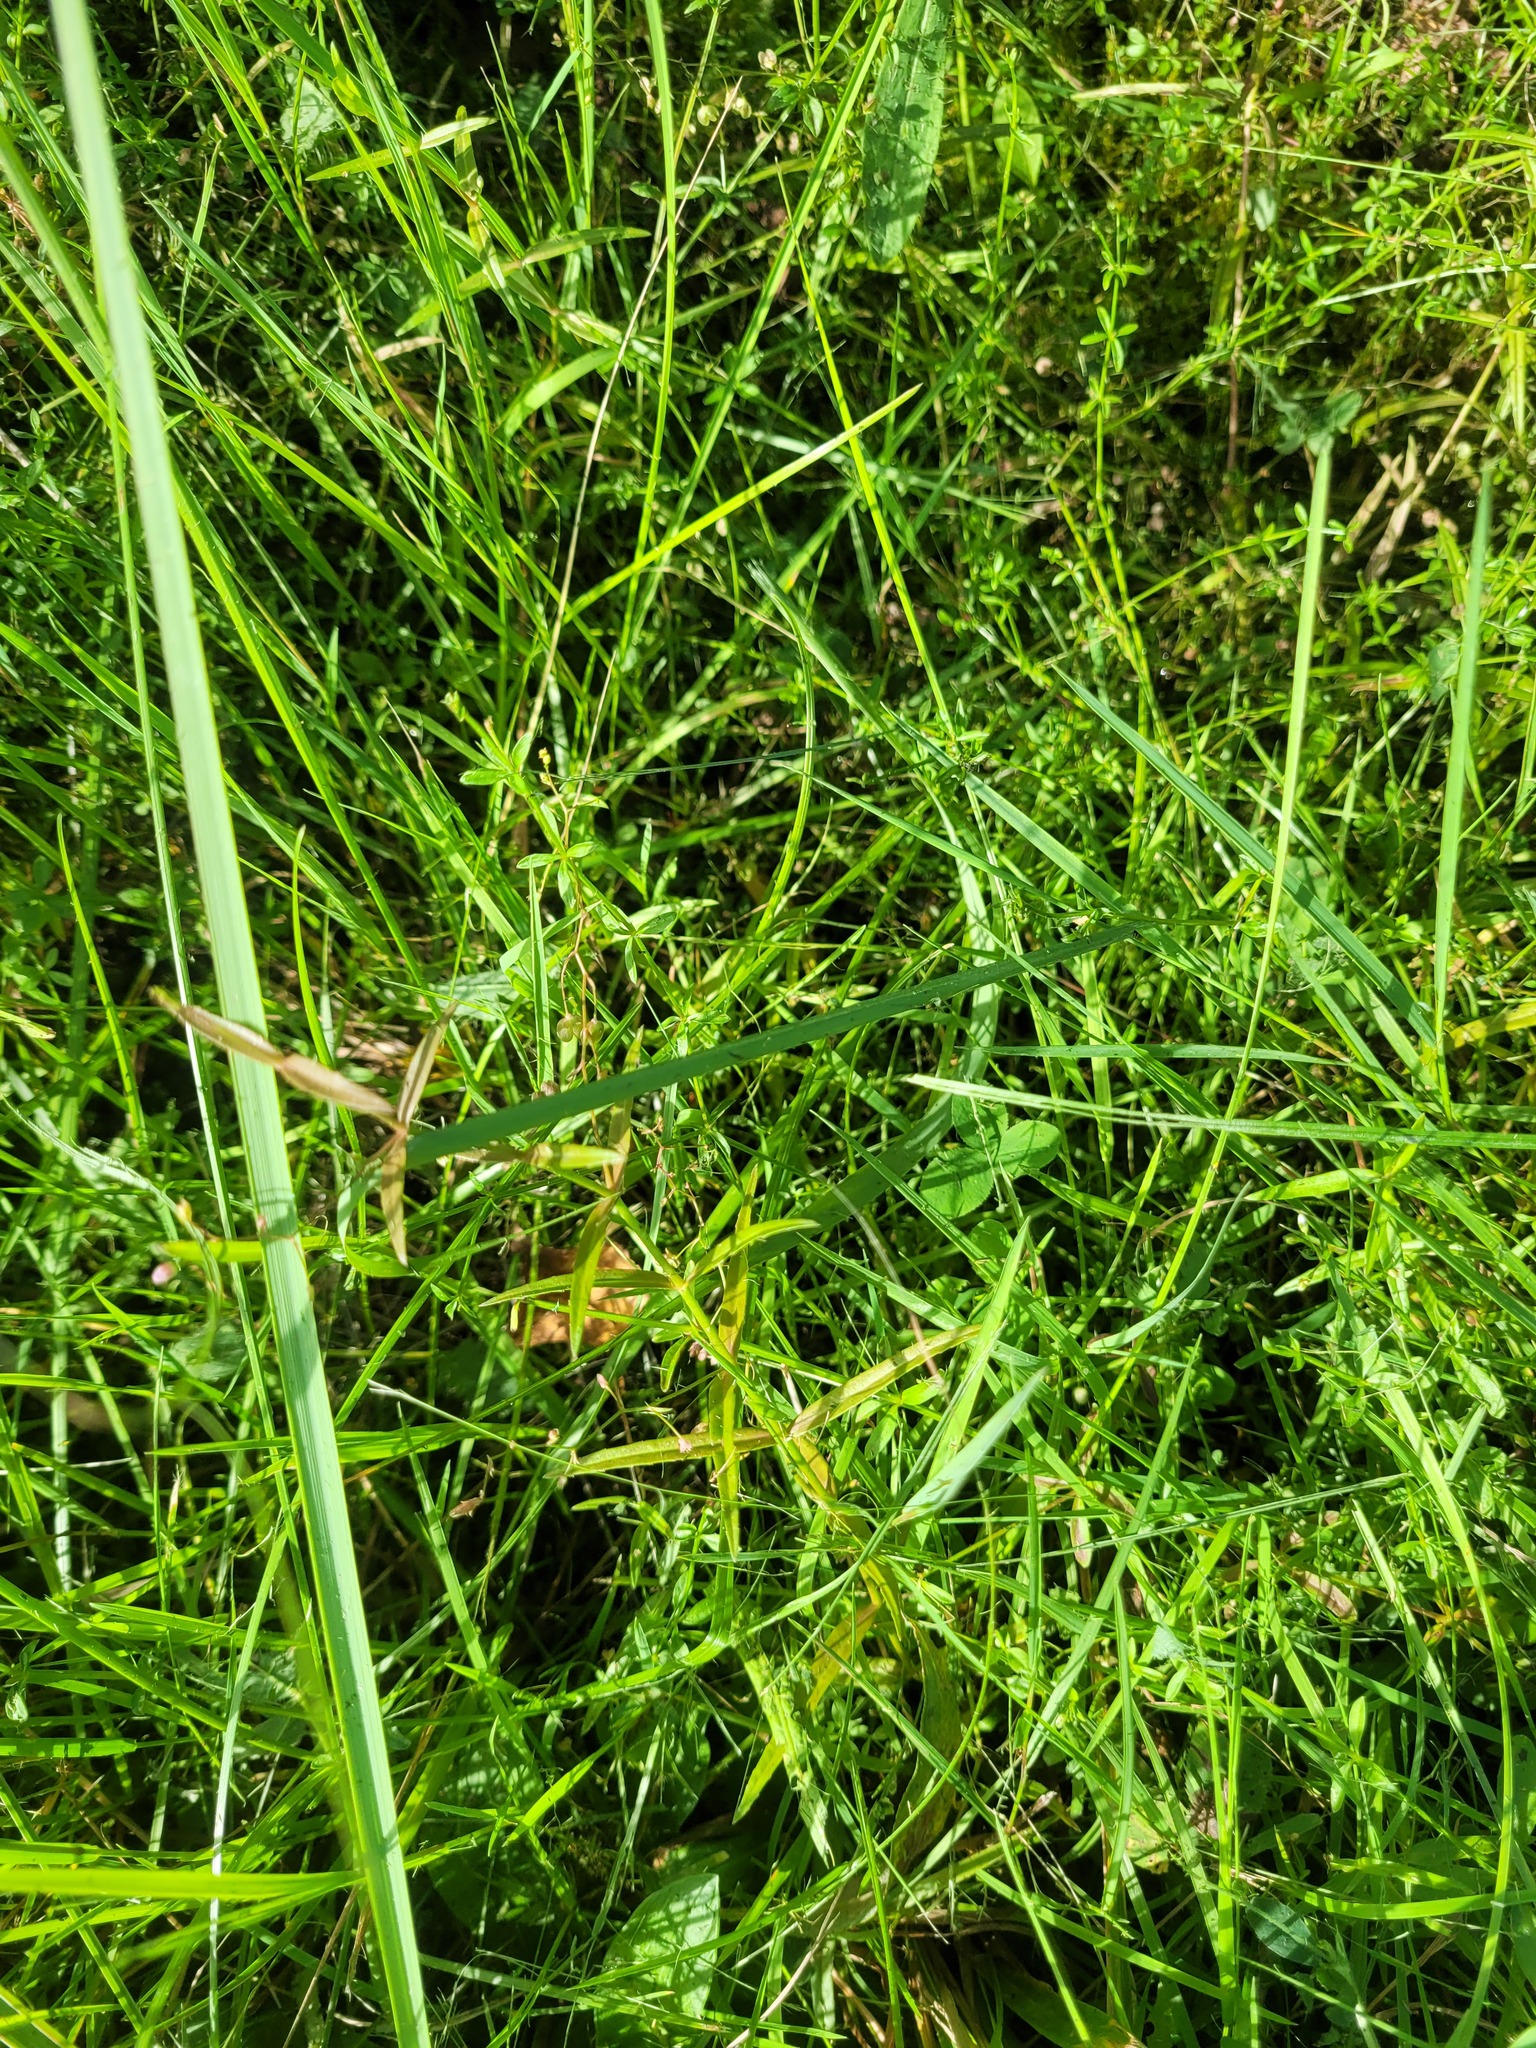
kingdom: Plantae
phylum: Tracheophyta
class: Magnoliopsida
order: Lamiales
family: Plantaginaceae
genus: Veronica
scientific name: Veronica scutellata
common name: Marsh speedwell
